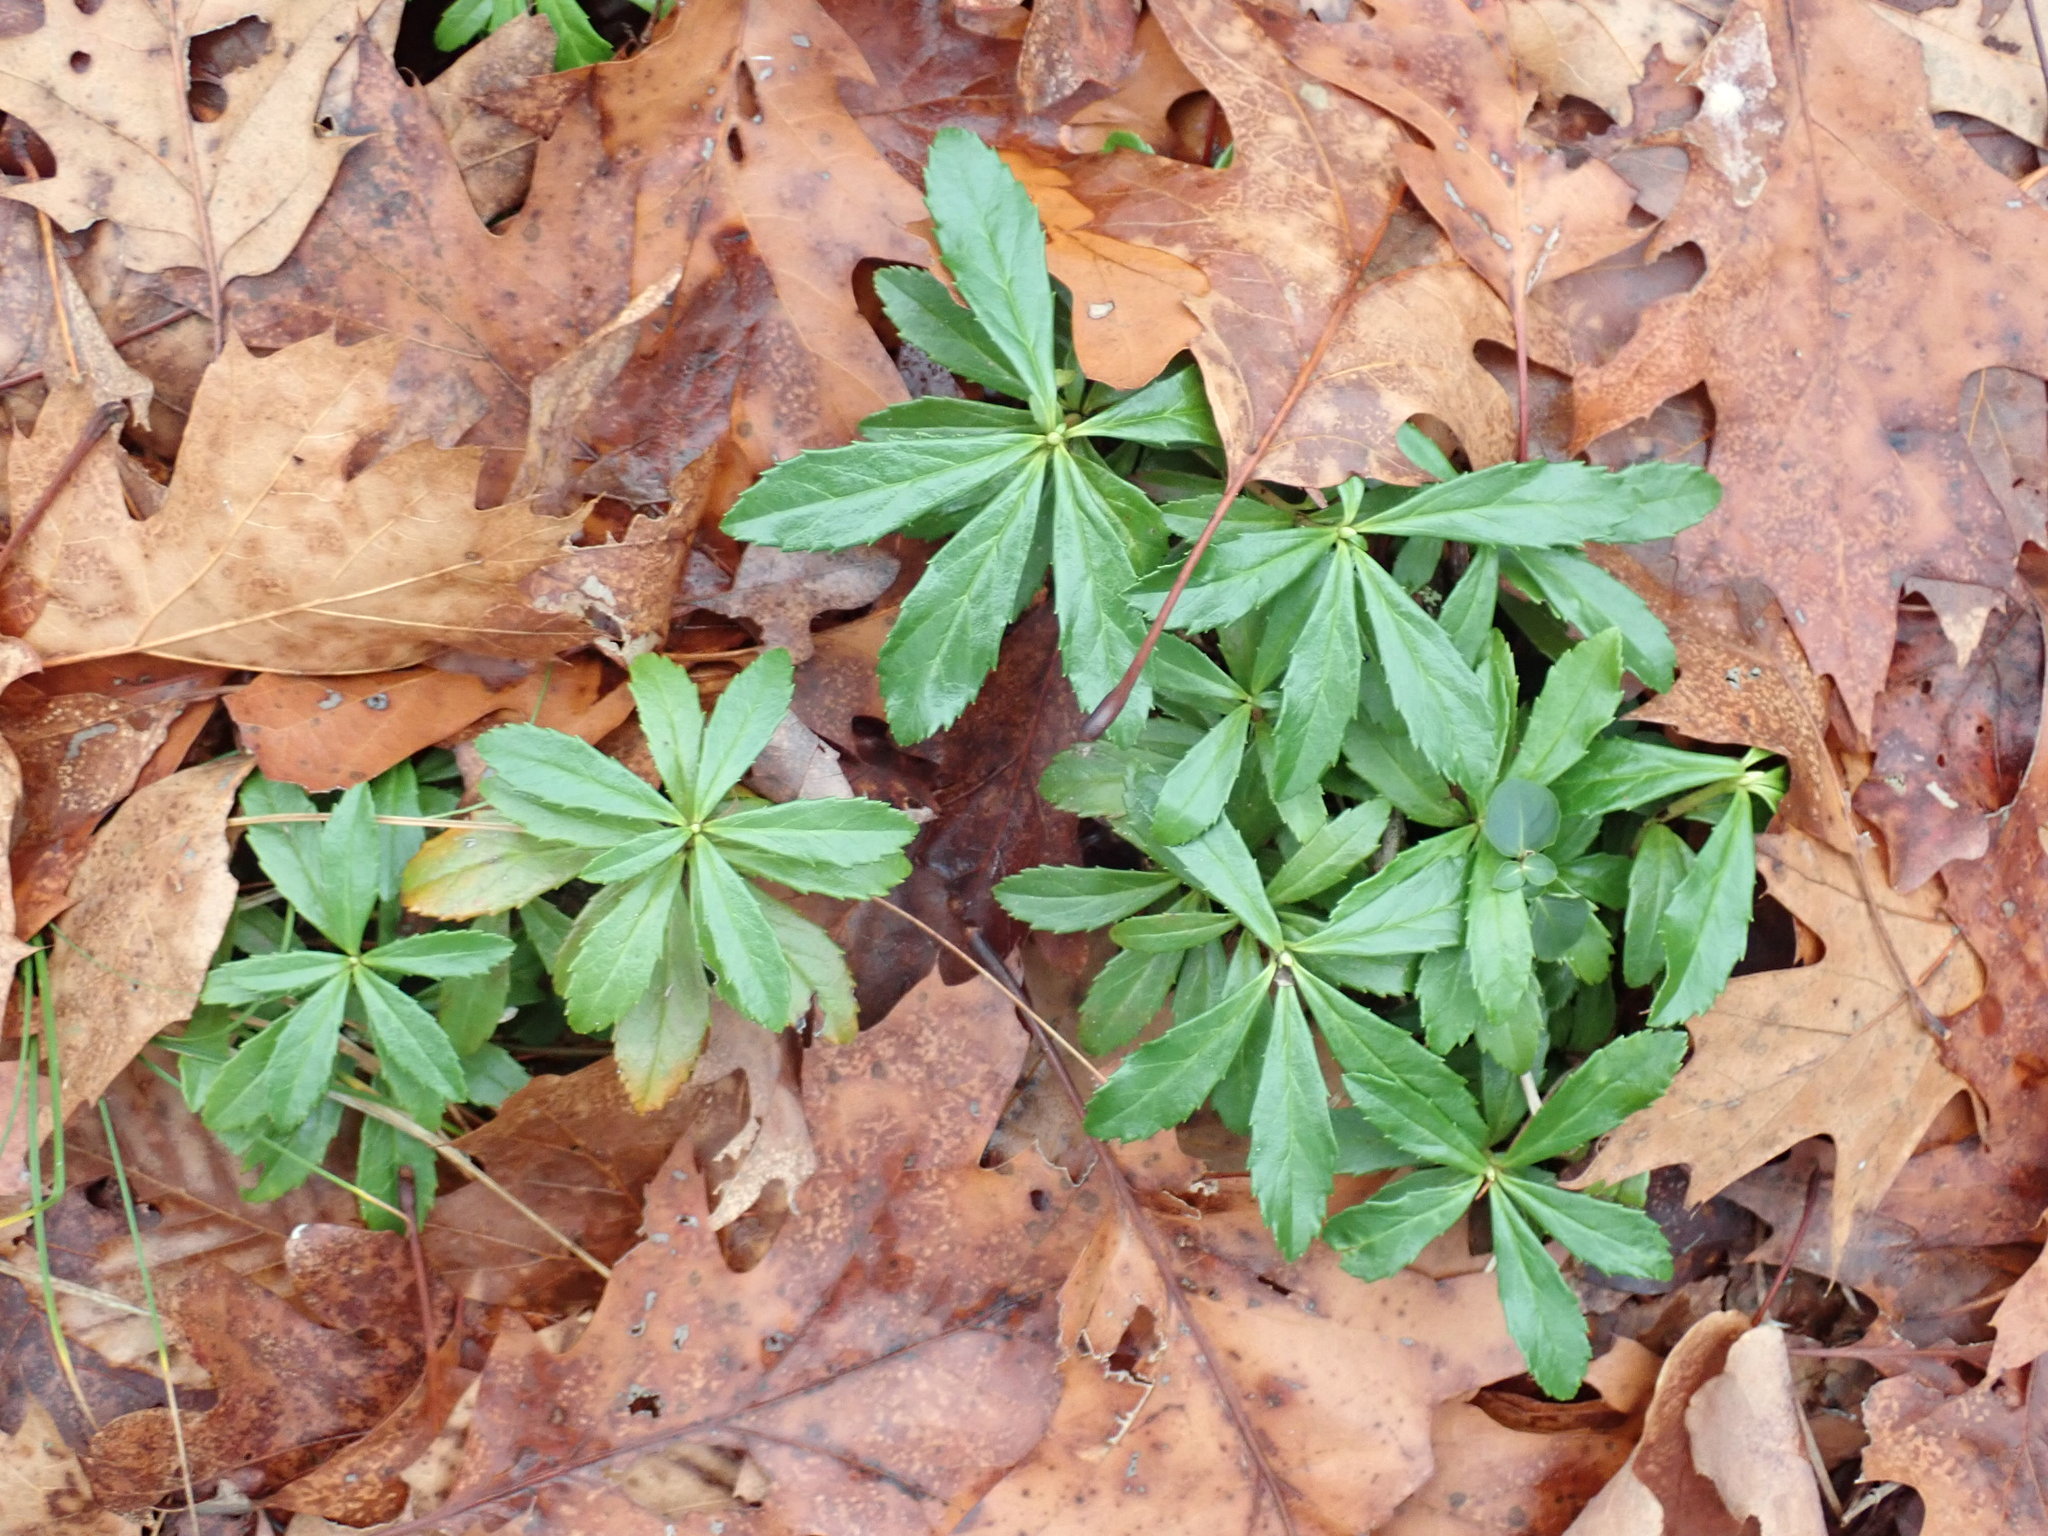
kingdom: Plantae
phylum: Tracheophyta
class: Magnoliopsida
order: Ericales
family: Ericaceae
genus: Chimaphila
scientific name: Chimaphila umbellata
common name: Pipsissewa
